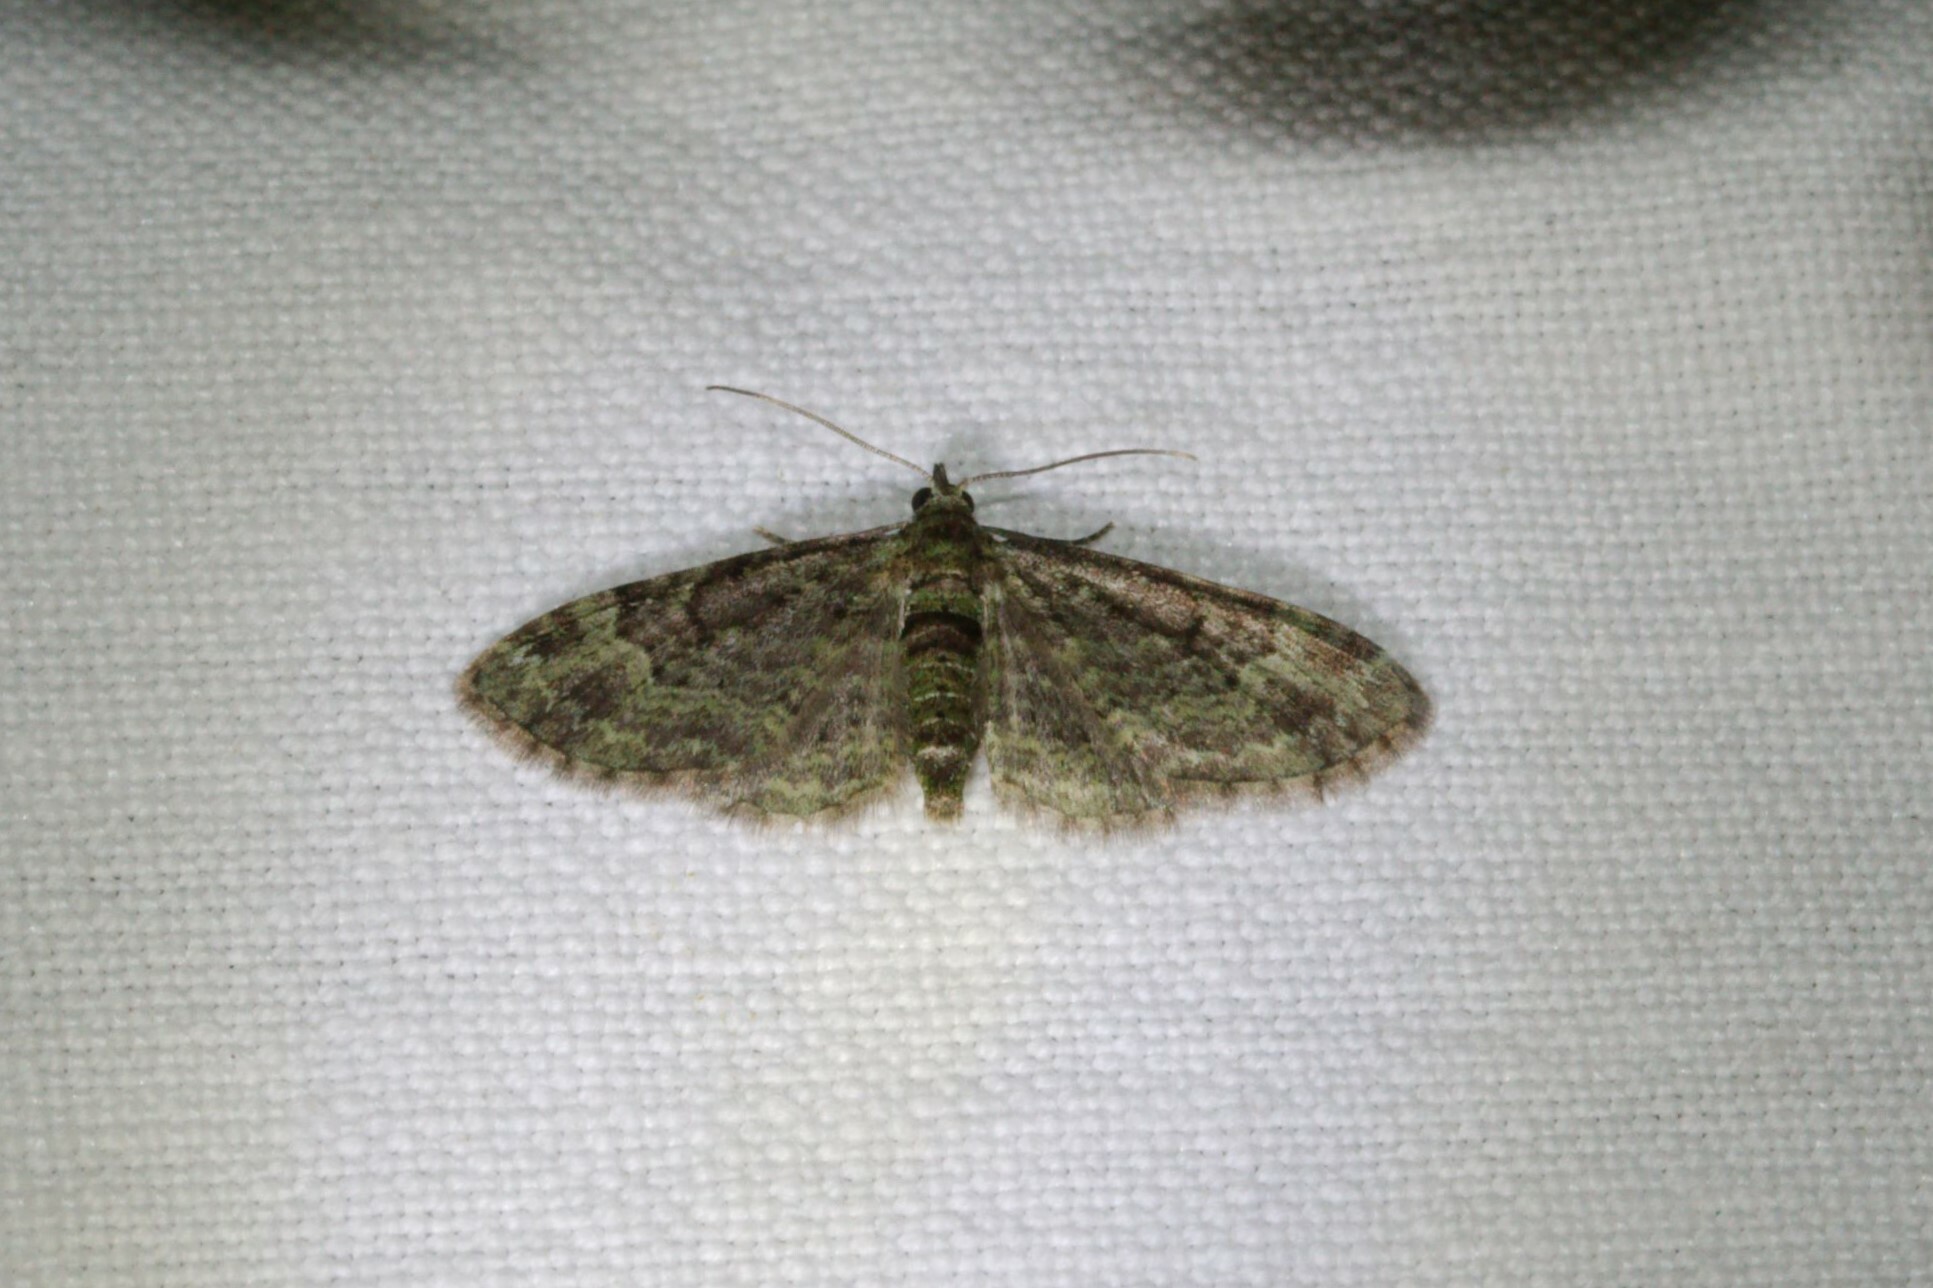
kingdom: Animalia
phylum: Arthropoda
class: Insecta
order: Lepidoptera
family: Geometridae
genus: Pasiphila
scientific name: Pasiphila rectangulata
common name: Green pug
